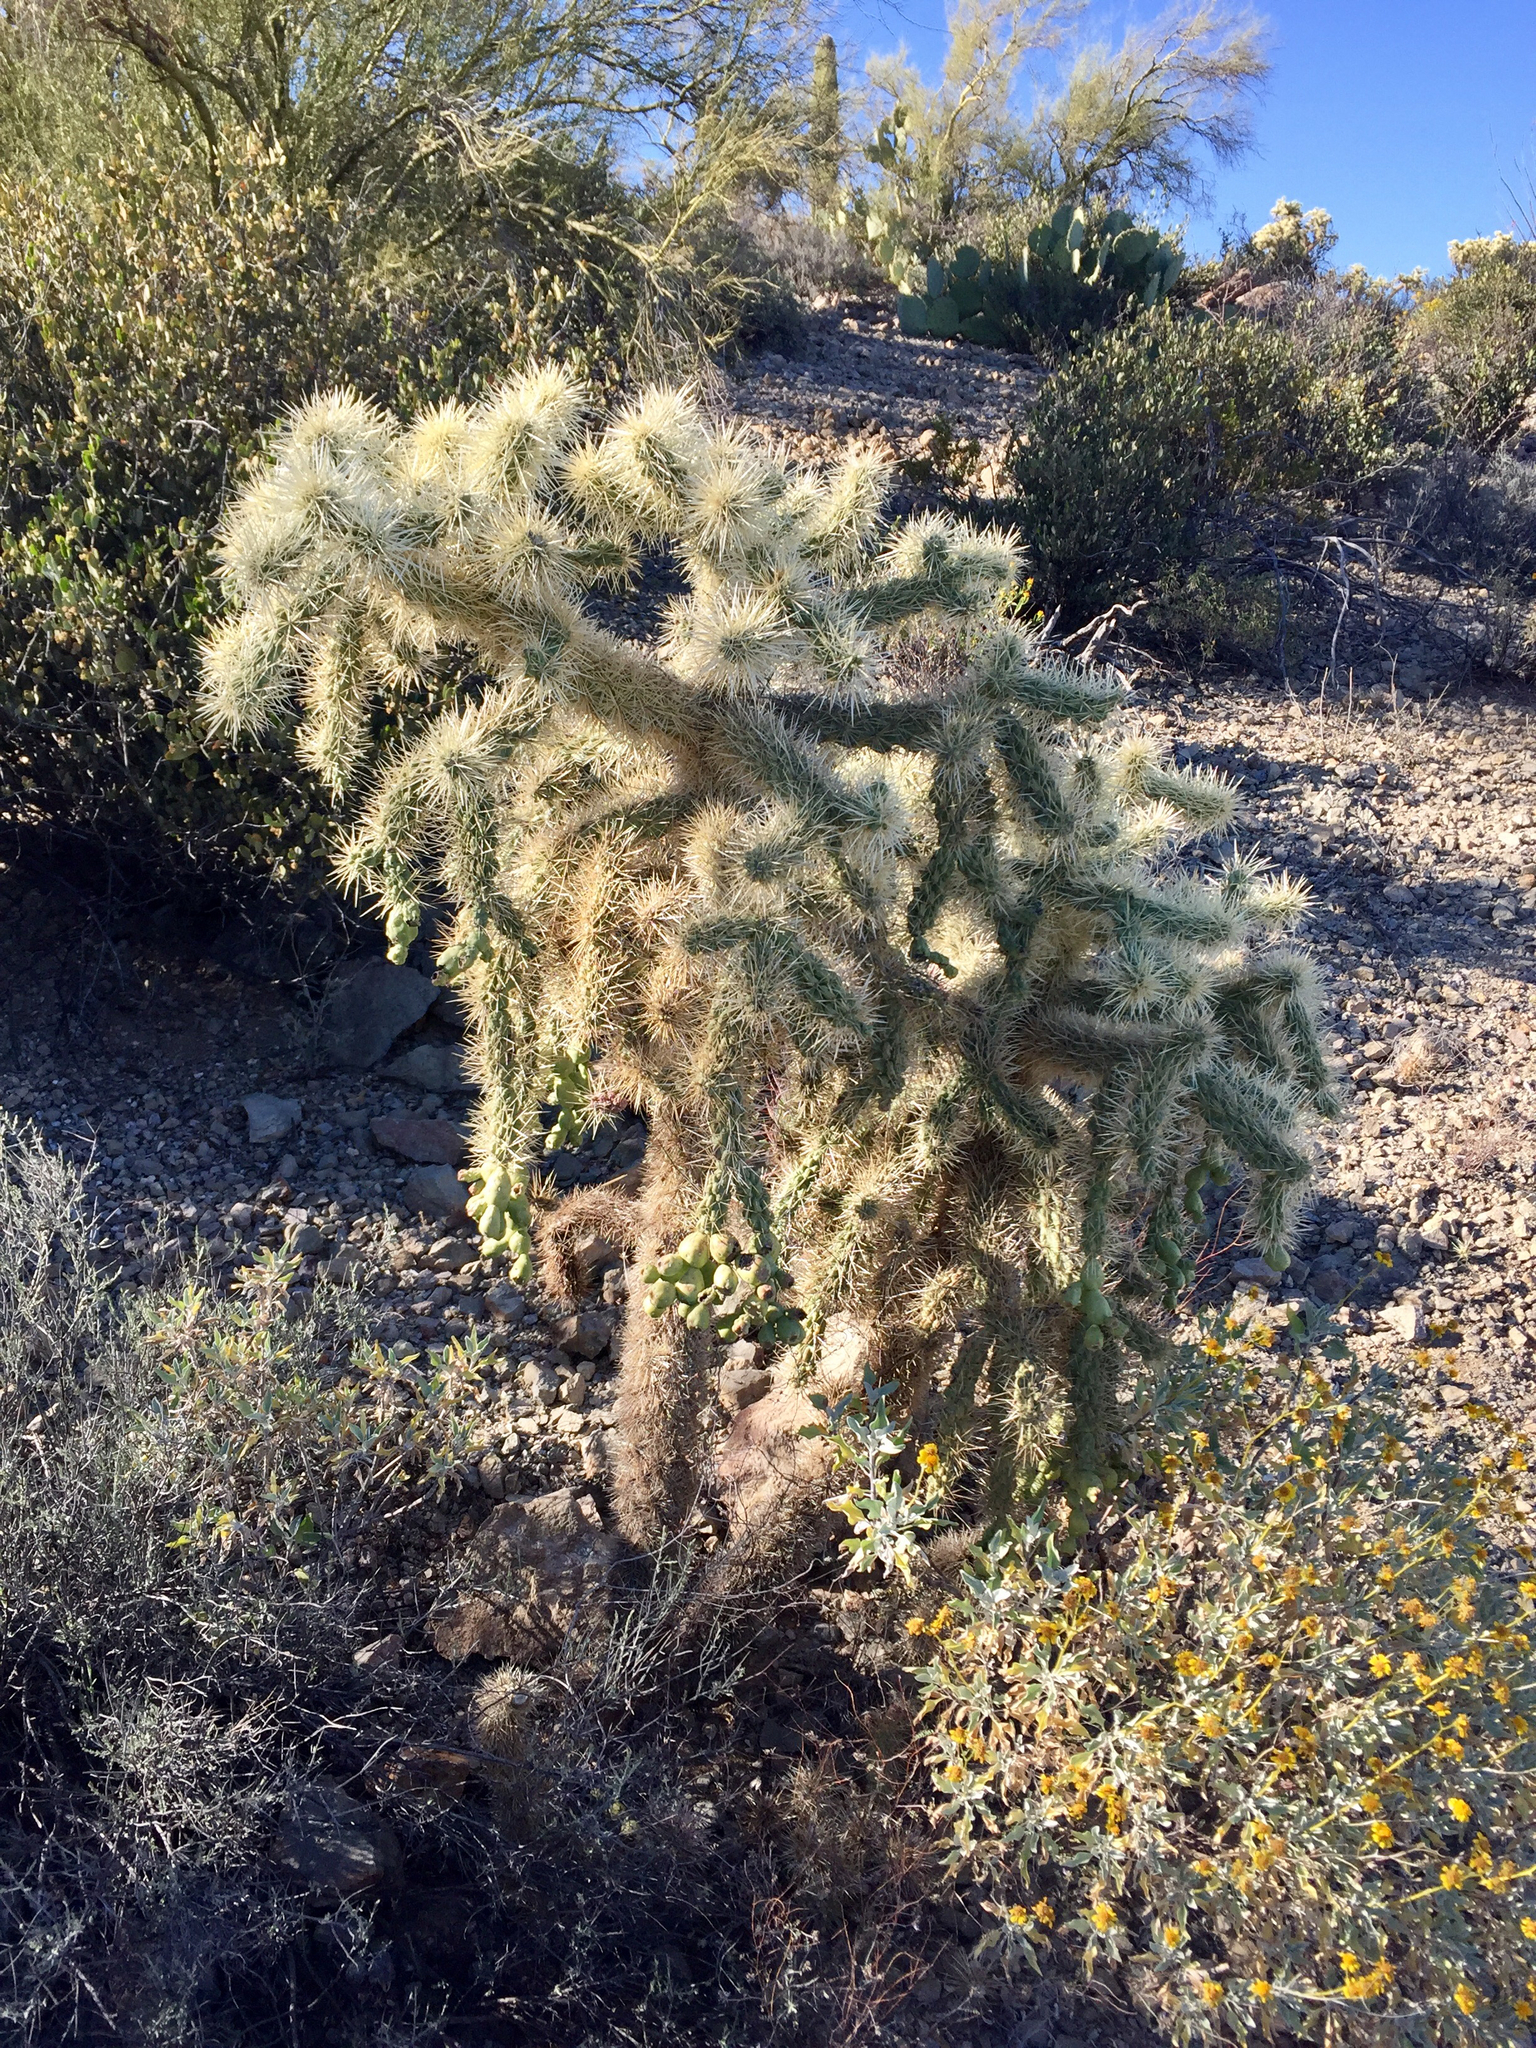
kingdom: Plantae
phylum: Tracheophyta
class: Magnoliopsida
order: Caryophyllales
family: Cactaceae
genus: Cylindropuntia
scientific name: Cylindropuntia fulgida
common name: Jumping cholla
